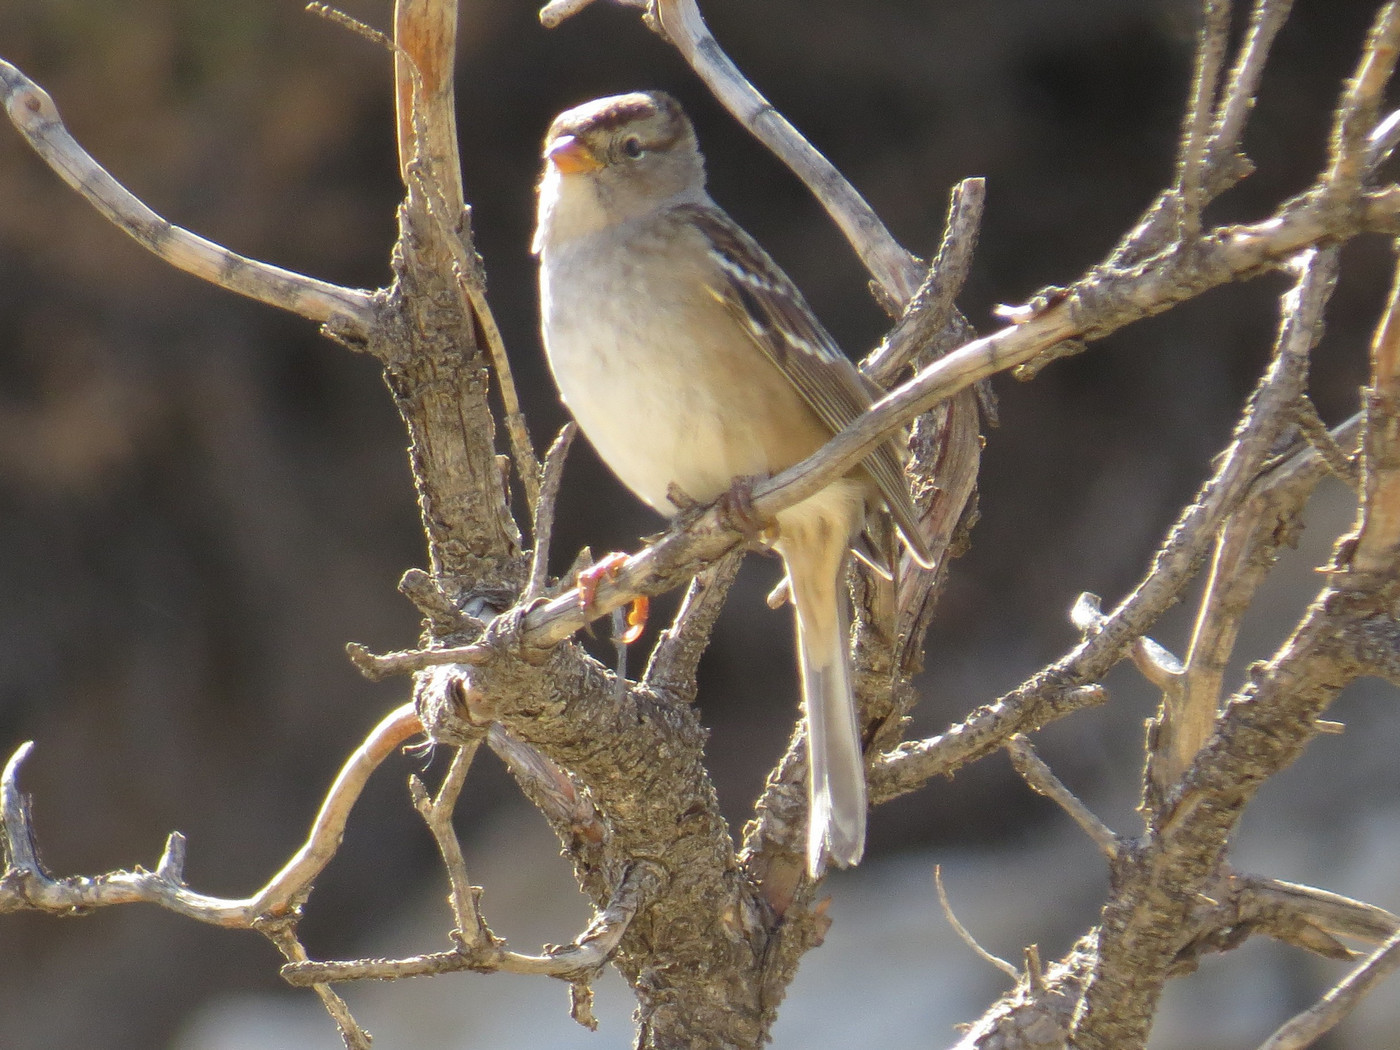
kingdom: Animalia
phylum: Chordata
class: Aves
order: Passeriformes
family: Passerellidae
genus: Zonotrichia
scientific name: Zonotrichia leucophrys
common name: White-crowned sparrow
